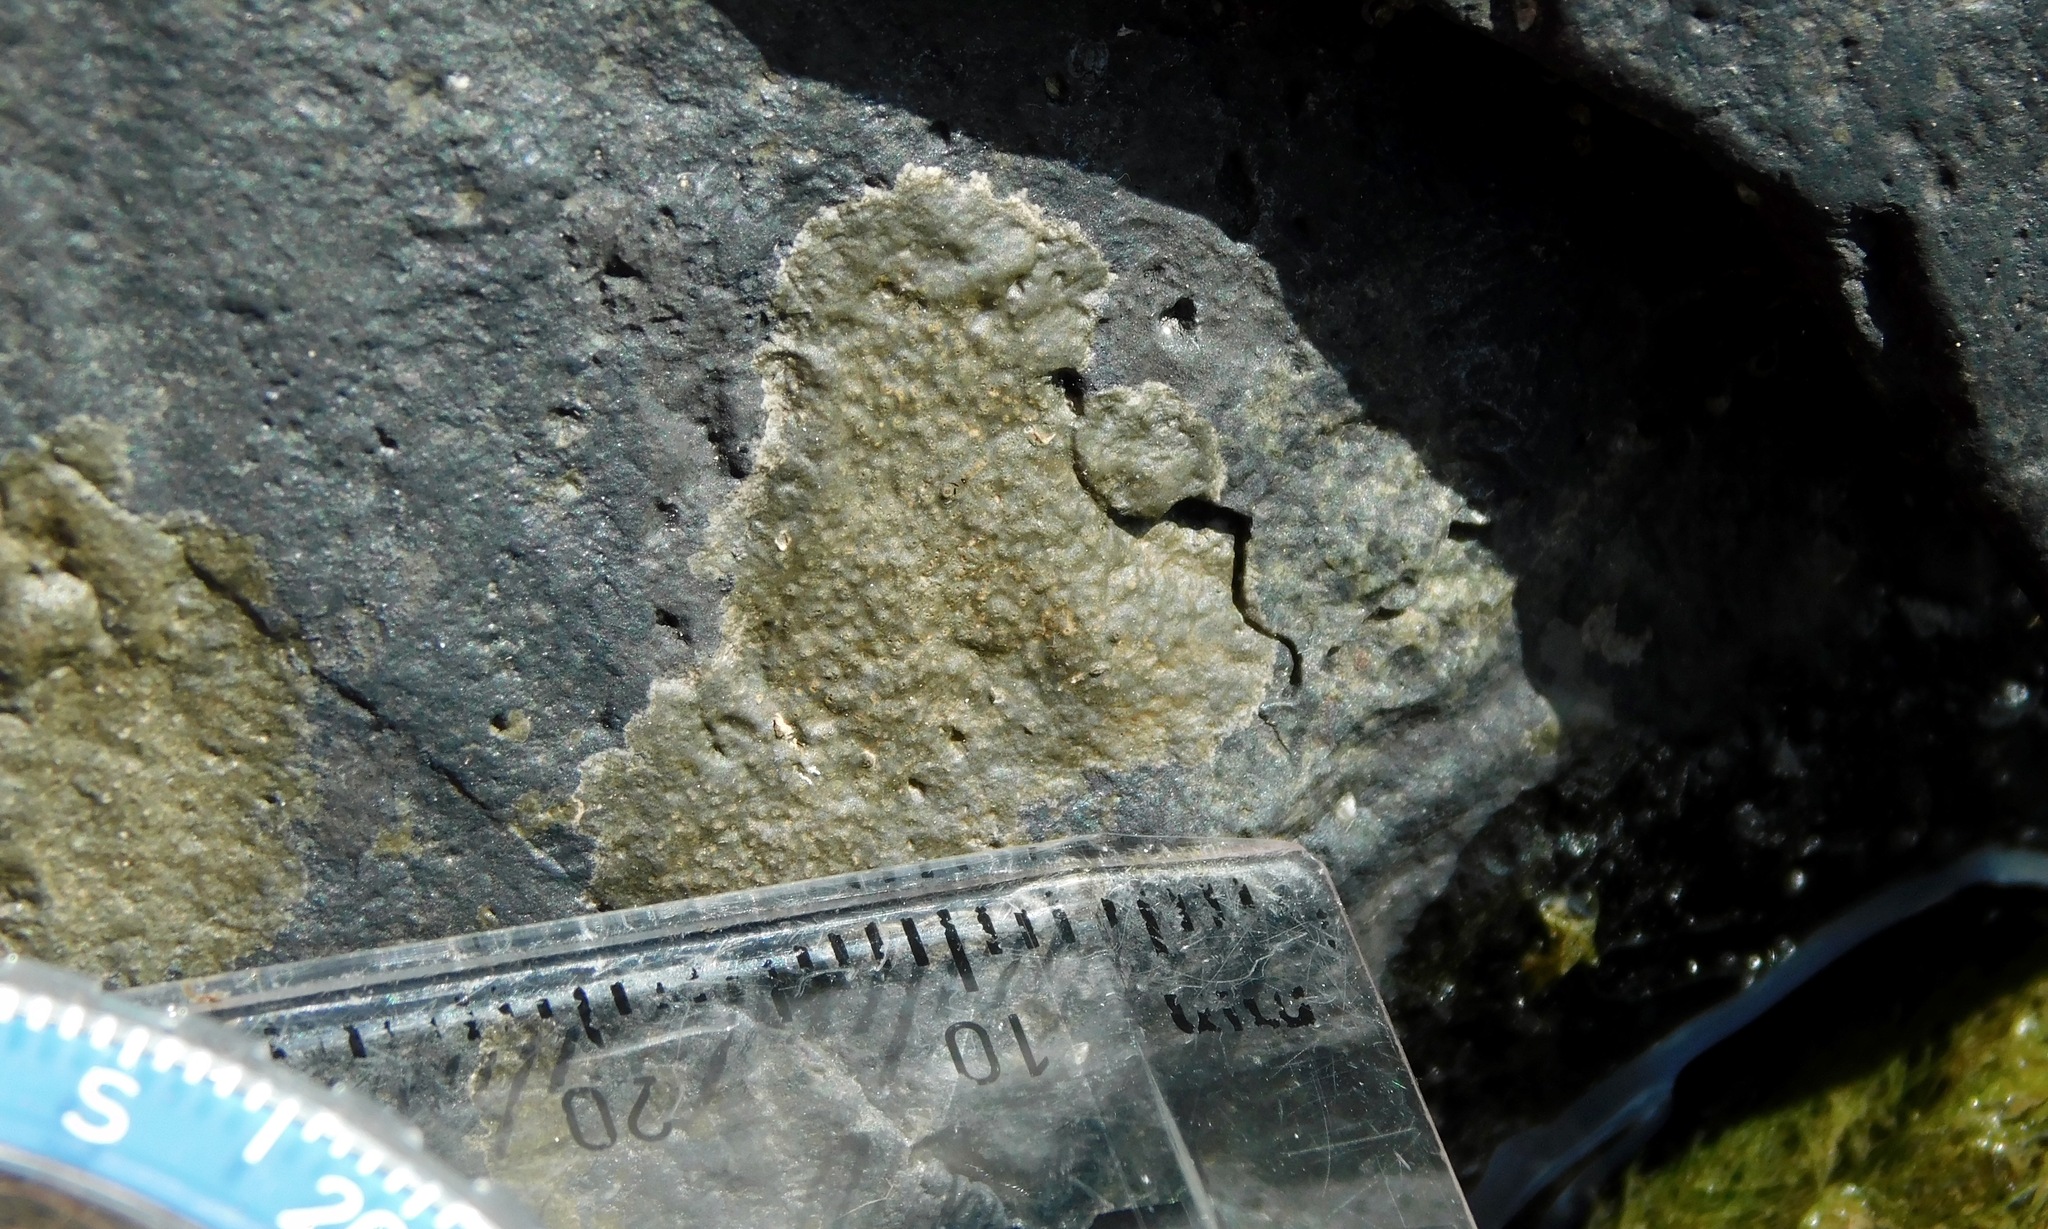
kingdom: Fungi
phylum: Ascomycota
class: Eurotiomycetes
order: Verrucariales
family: Verrucariaceae
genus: Wahlenbergiella
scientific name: Wahlenbergiella mucosa
